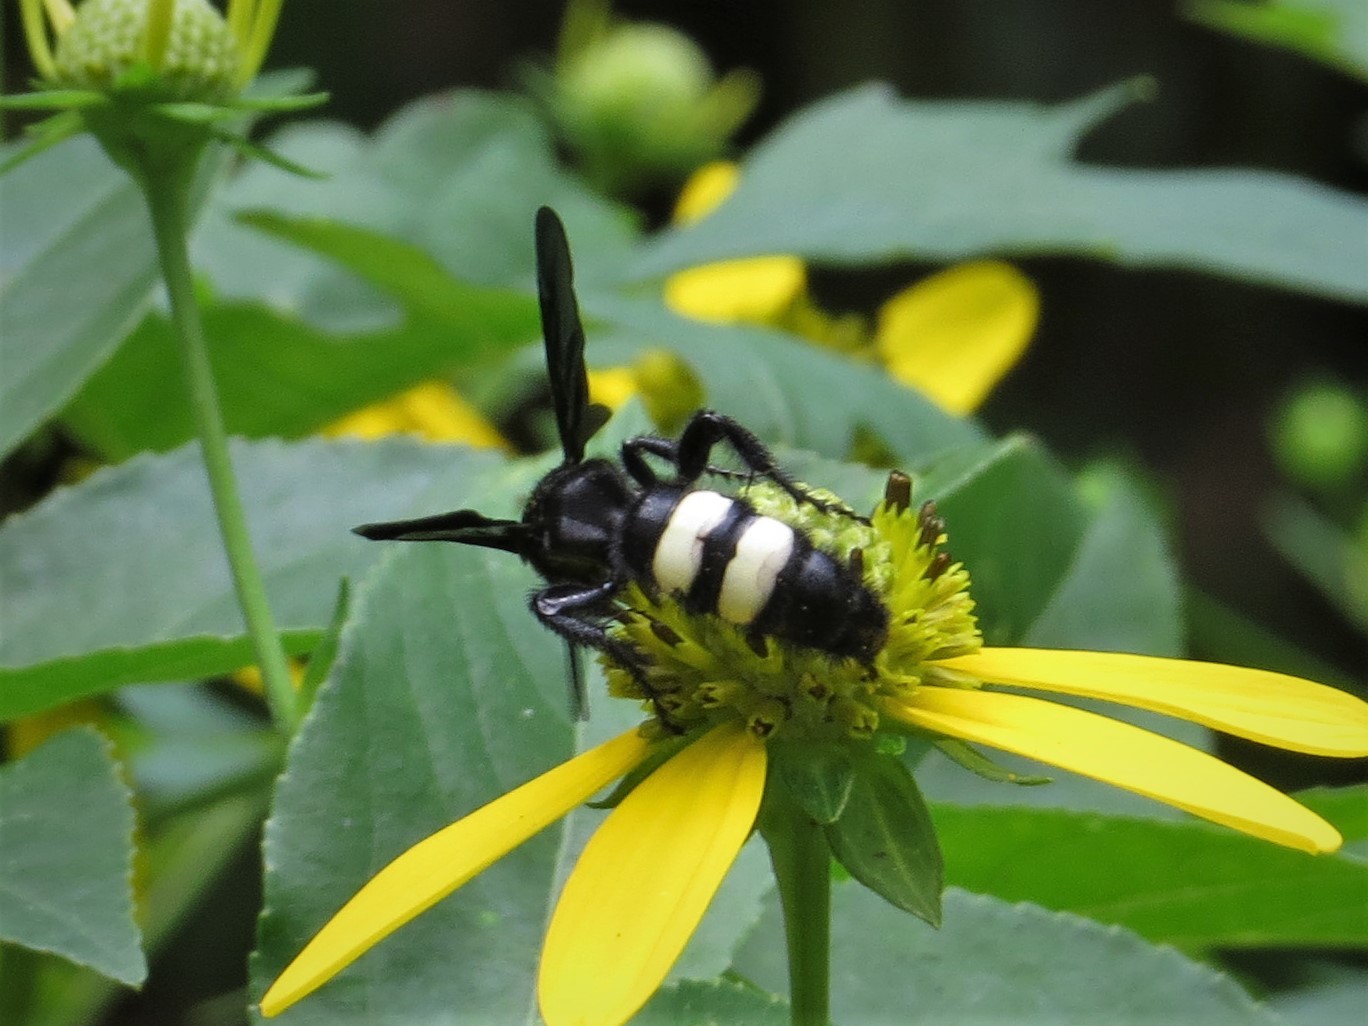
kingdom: Animalia
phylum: Arthropoda
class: Insecta
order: Hymenoptera
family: Scoliidae
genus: Scolia
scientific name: Scolia bicincta
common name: Double-banded scoliid wasp
